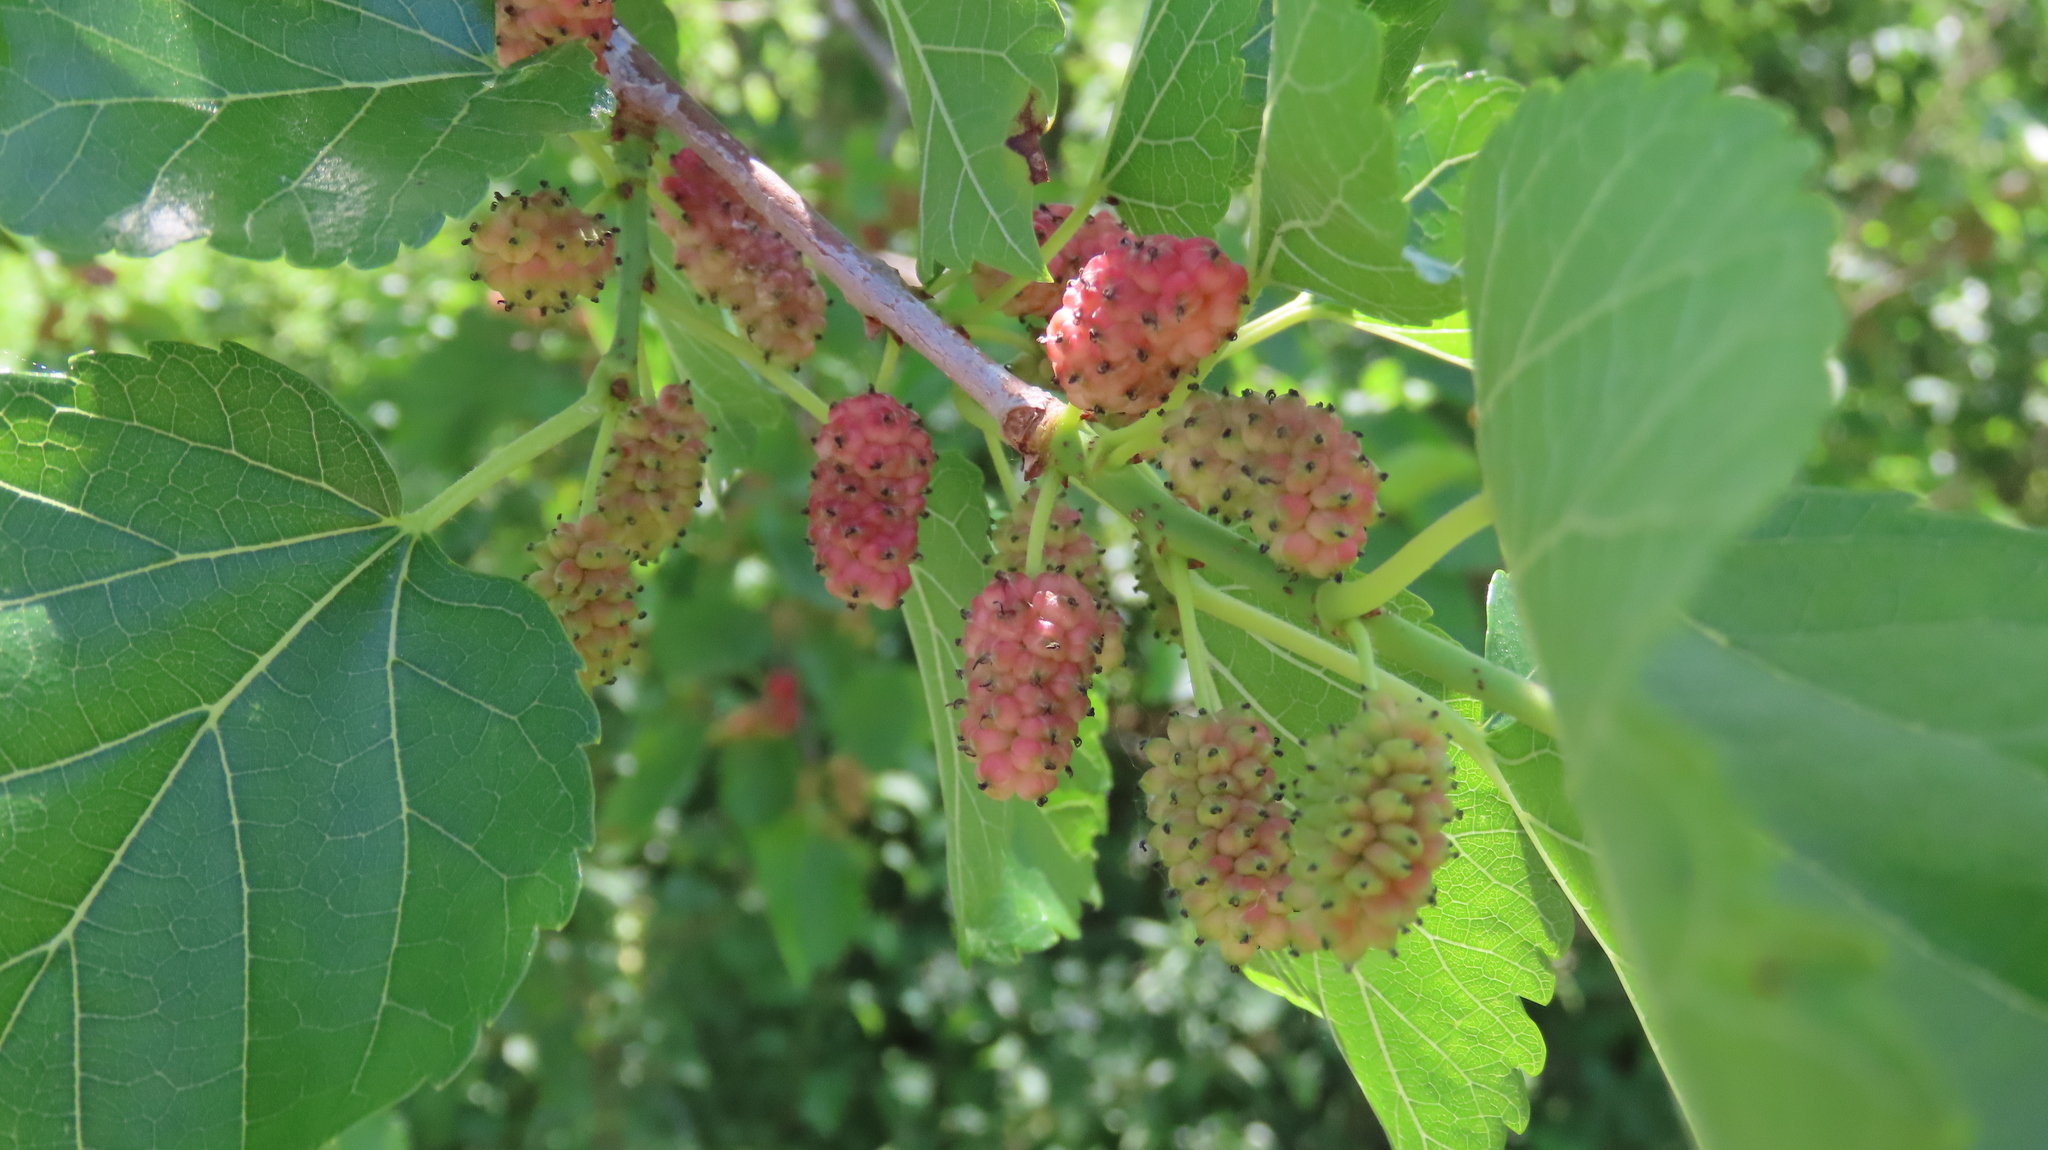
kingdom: Plantae
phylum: Tracheophyta
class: Magnoliopsida
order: Rosales
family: Moraceae
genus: Morus
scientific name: Morus alba
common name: White mulberry
